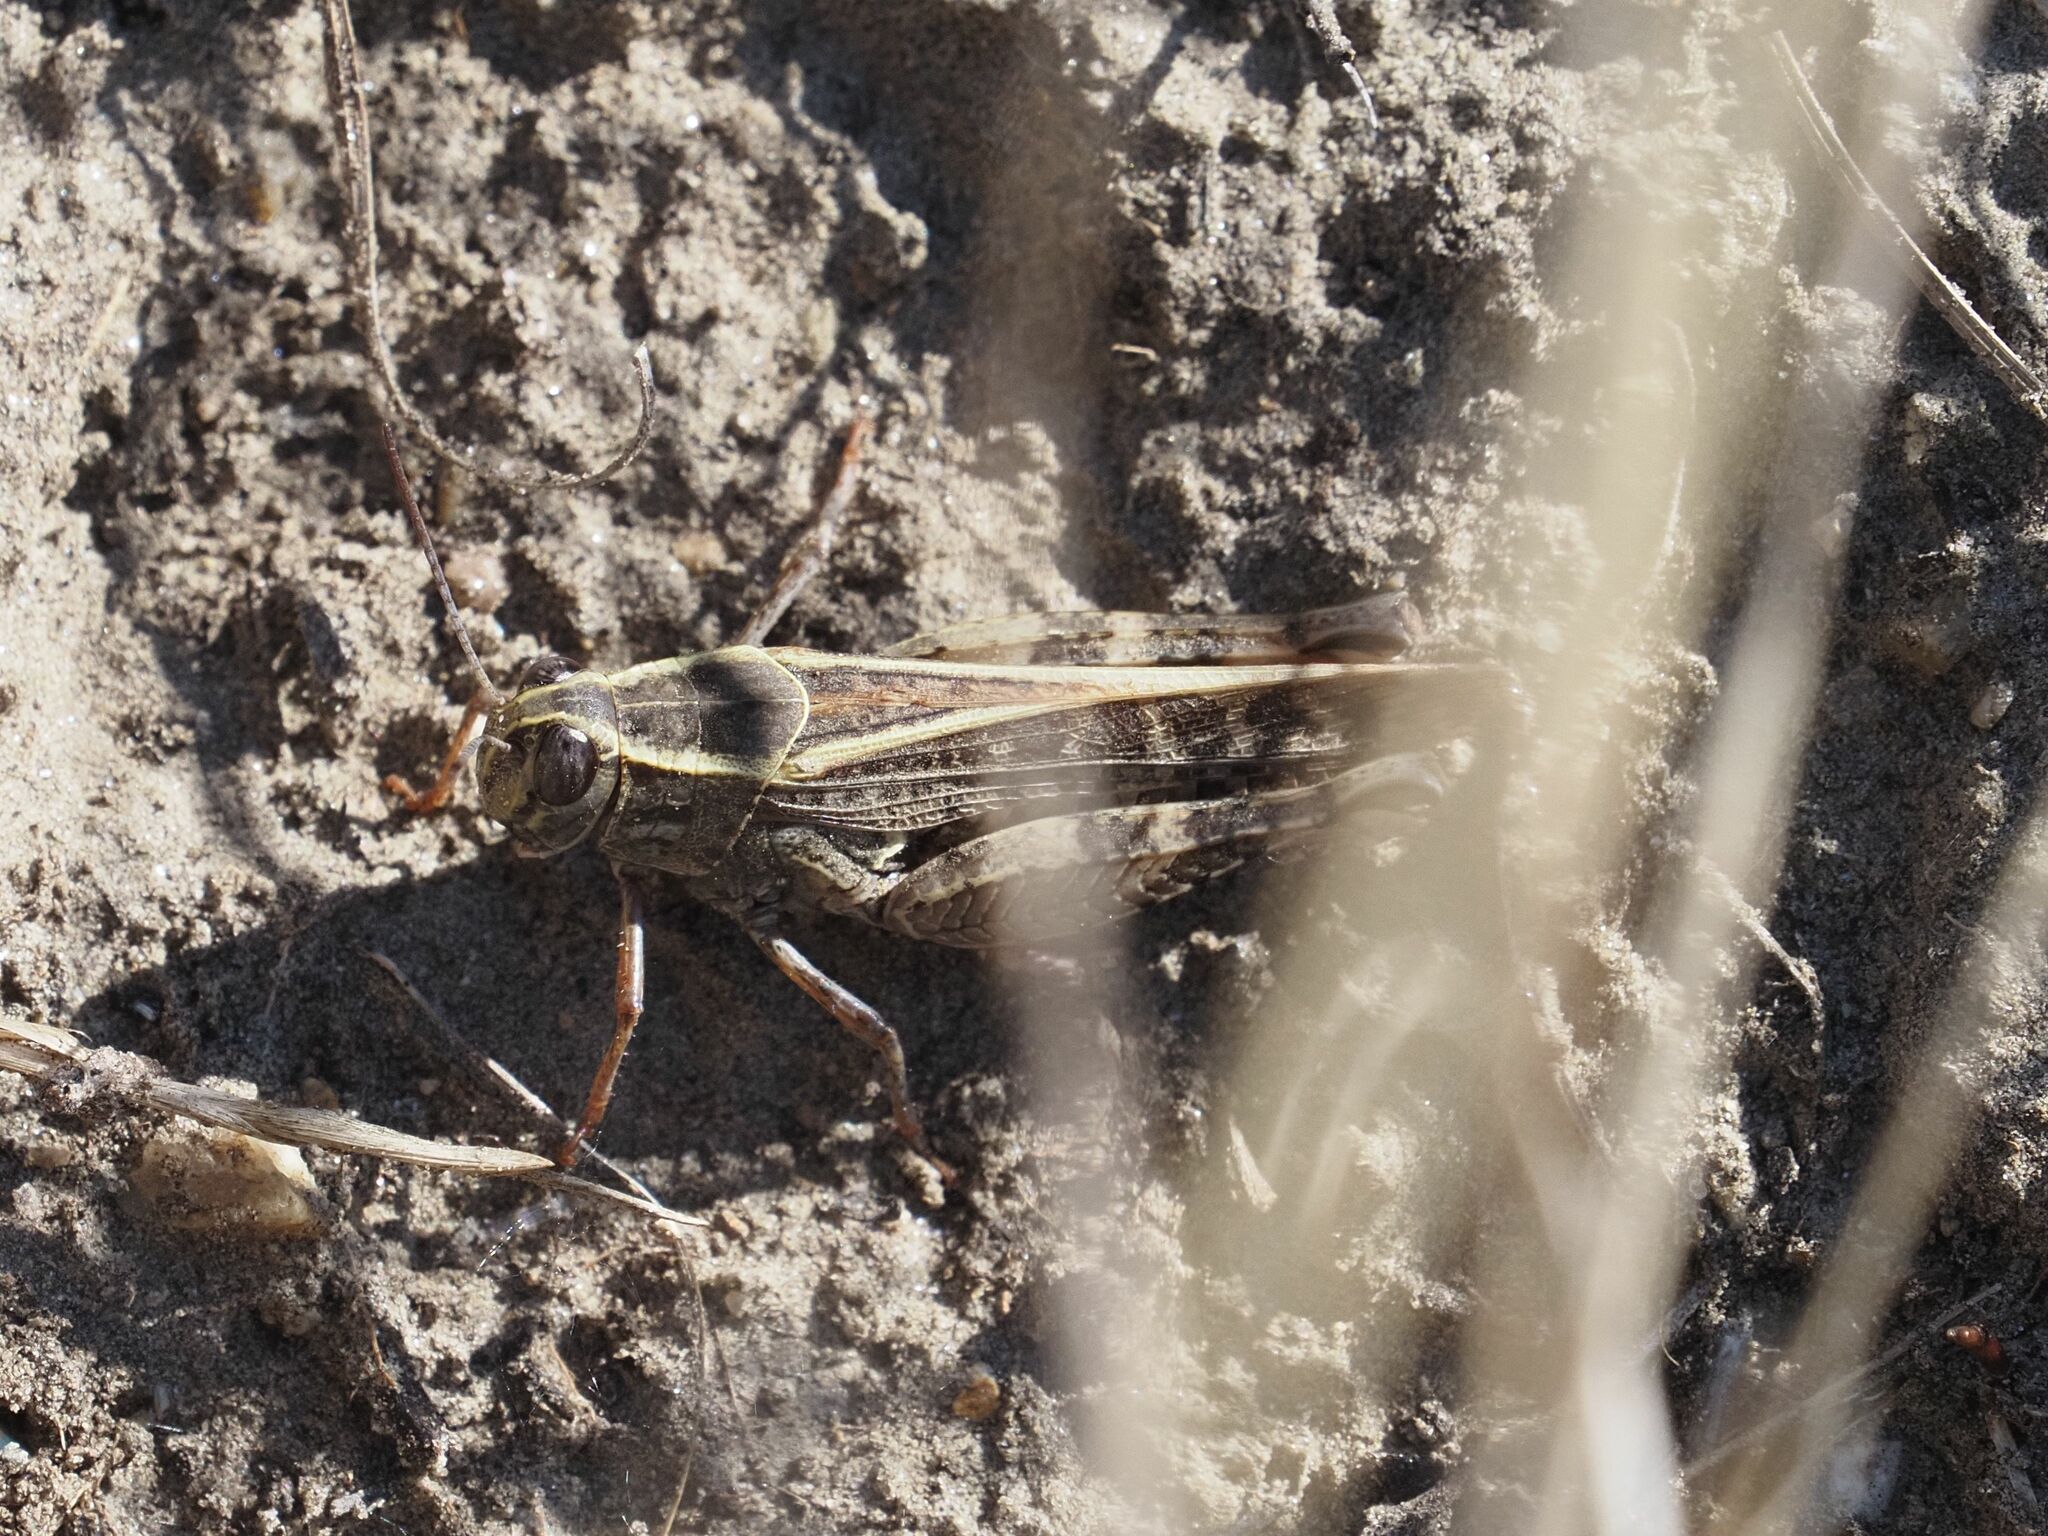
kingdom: Animalia
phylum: Arthropoda
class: Insecta
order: Orthoptera
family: Acrididae
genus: Calliptamus
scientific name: Calliptamus italicus
